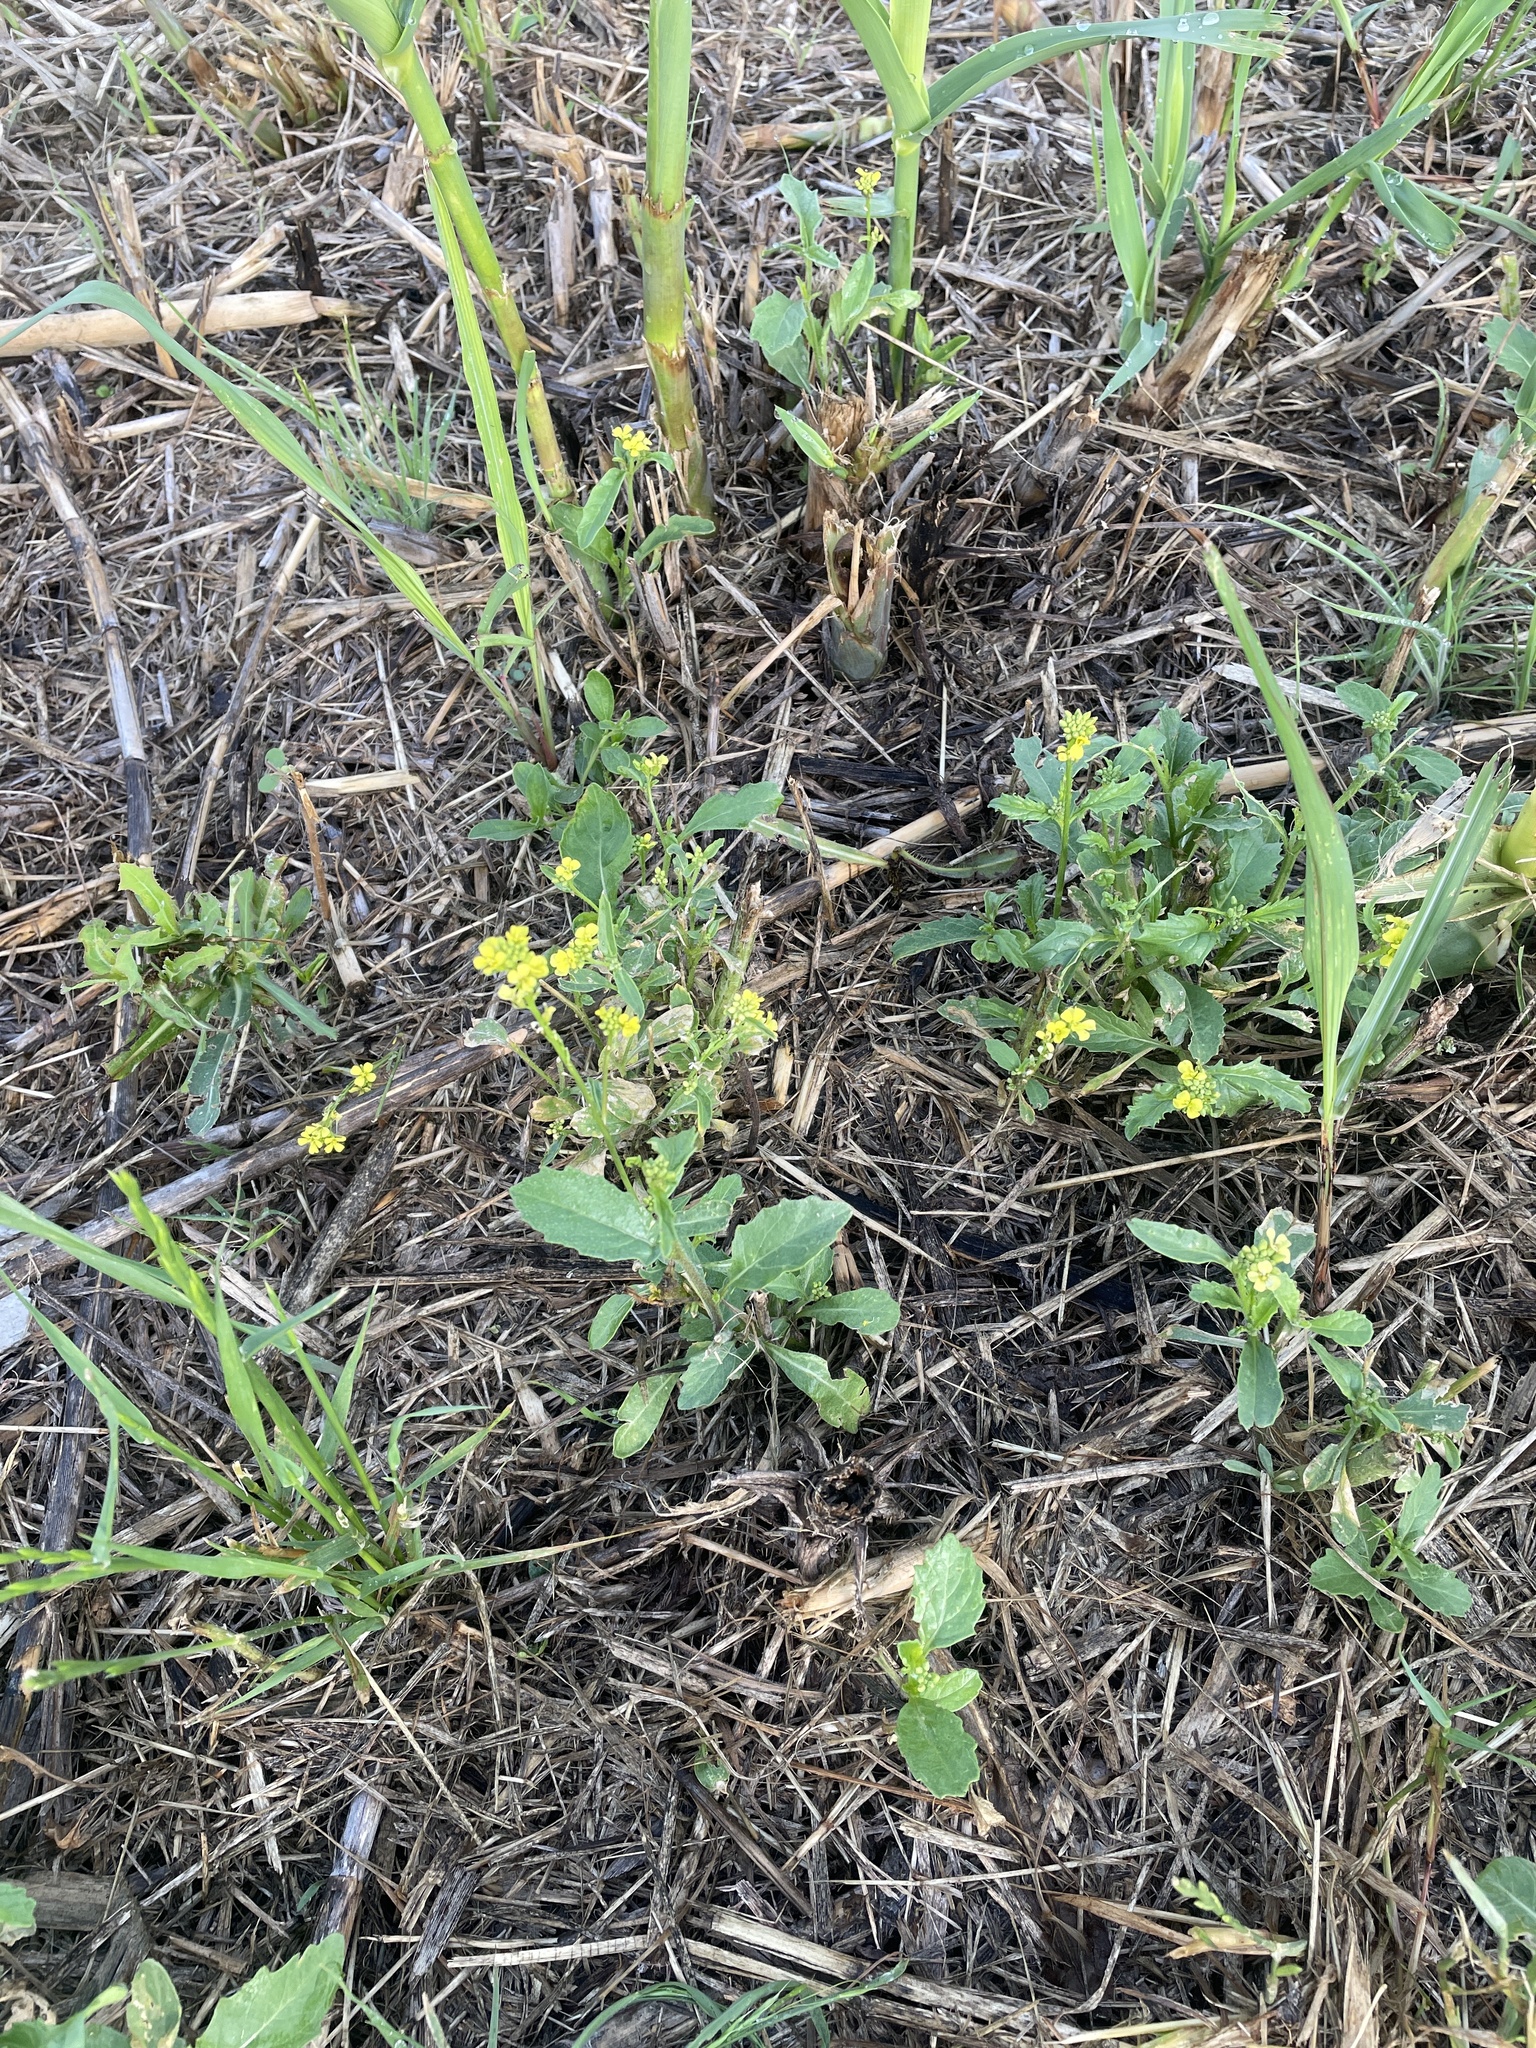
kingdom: Plantae
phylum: Tracheophyta
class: Magnoliopsida
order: Brassicales
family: Brassicaceae
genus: Rapistrum
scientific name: Rapistrum rugosum
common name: Annual bastardcabbage
